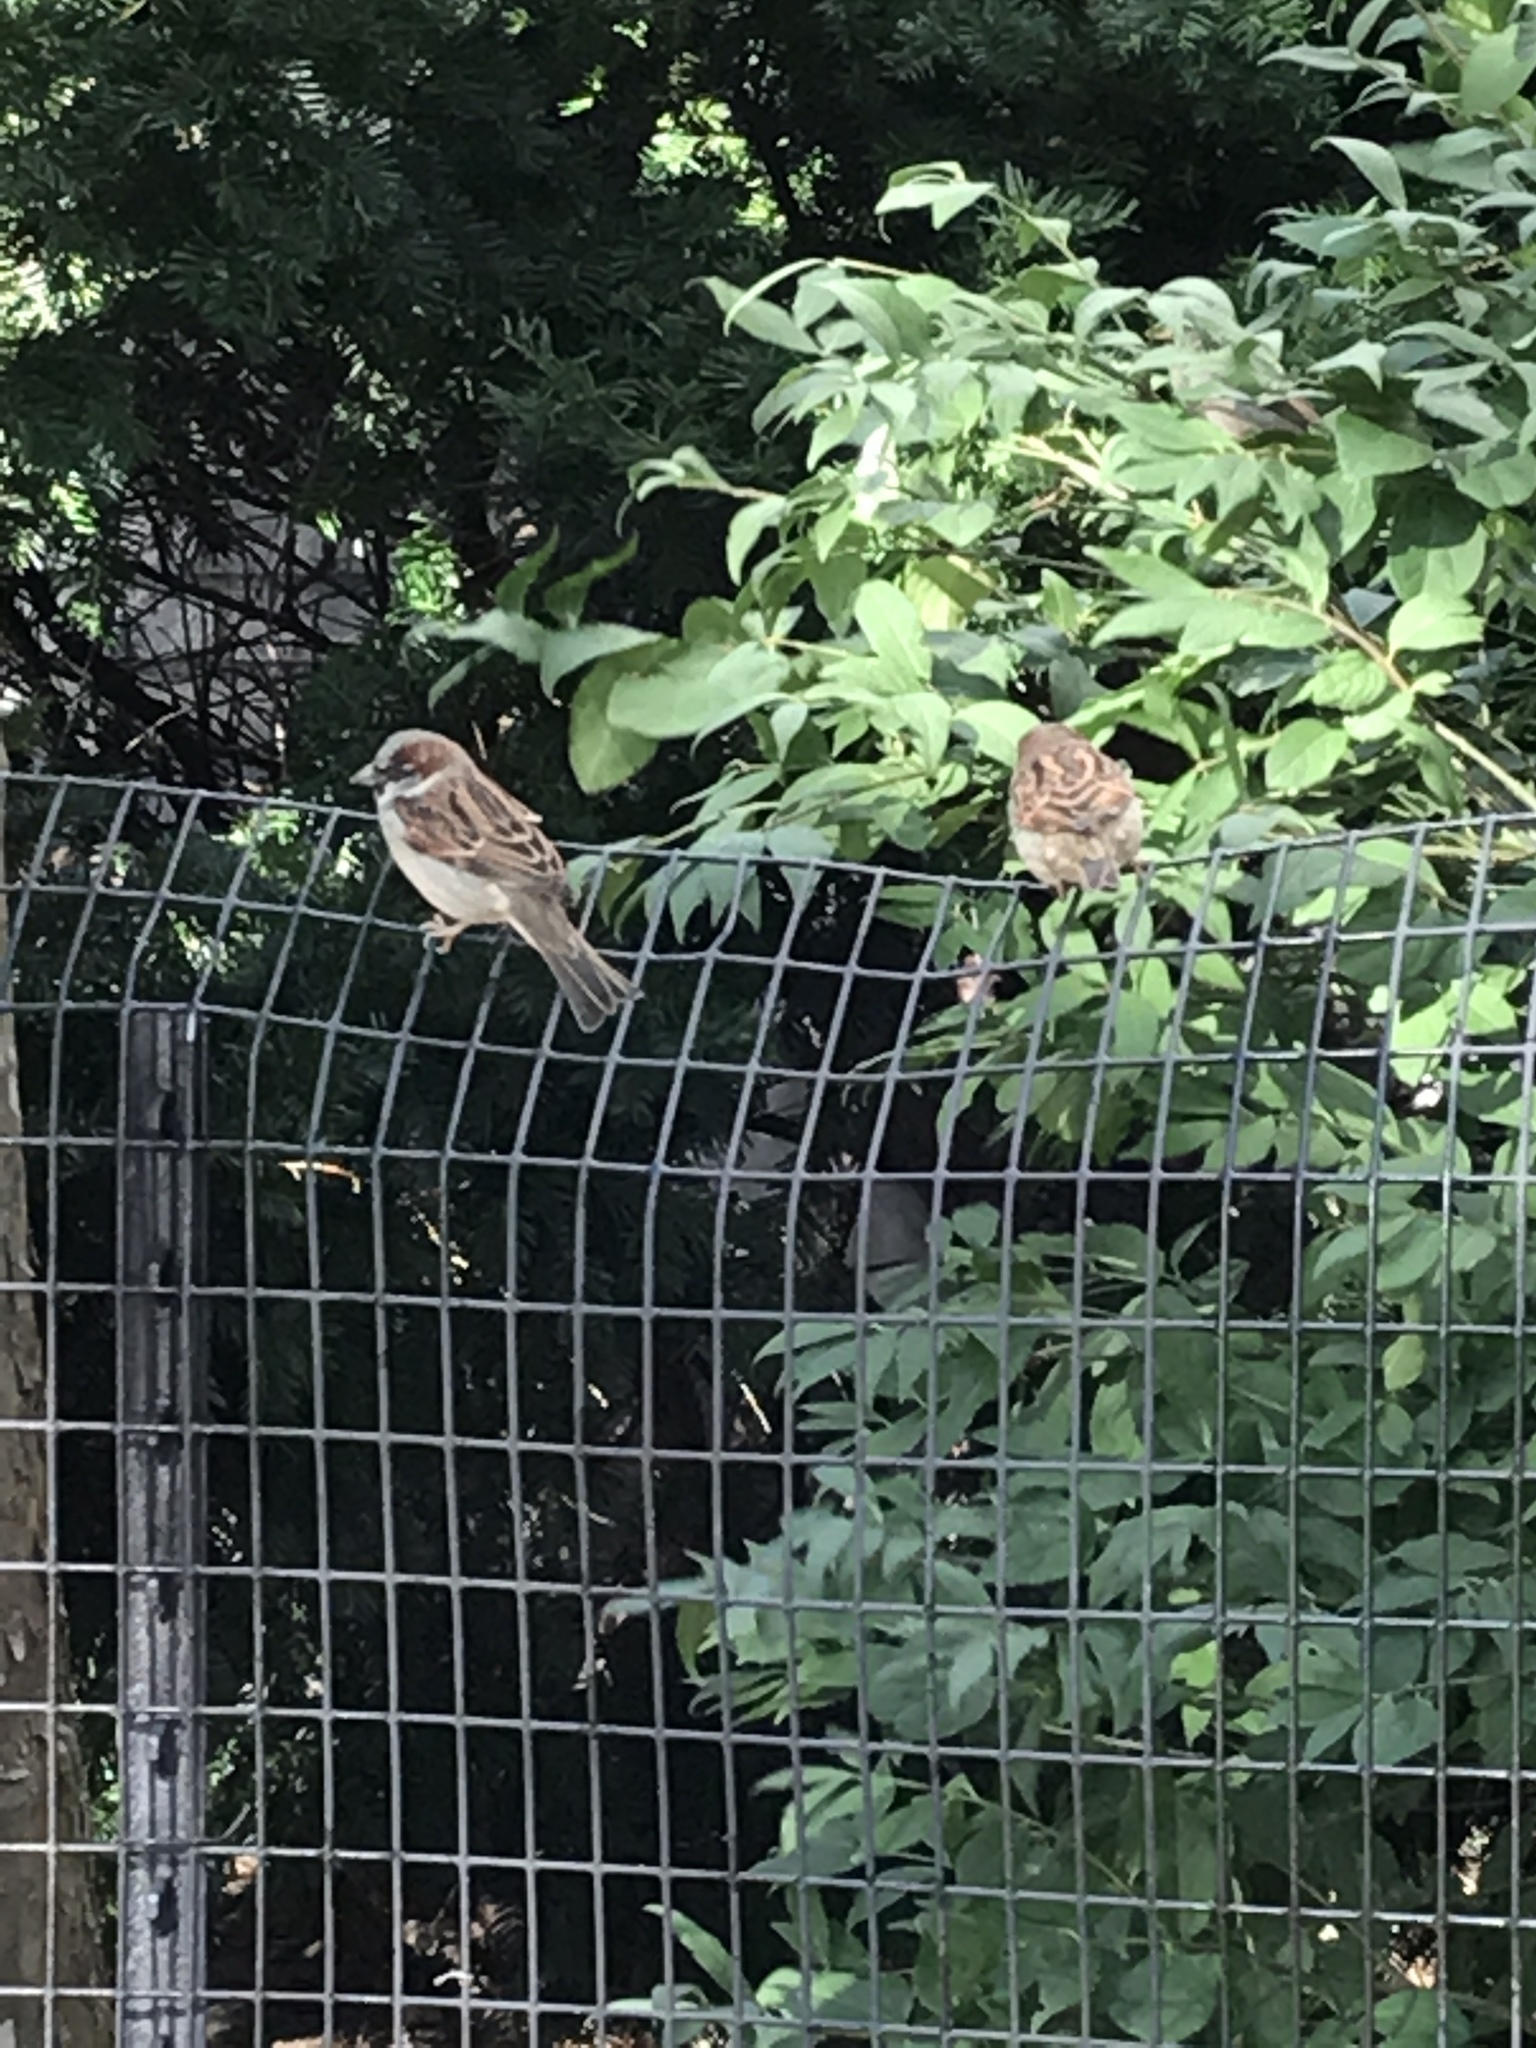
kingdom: Animalia
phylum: Chordata
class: Aves
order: Passeriformes
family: Passeridae
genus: Passer
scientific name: Passer domesticus
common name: House sparrow
